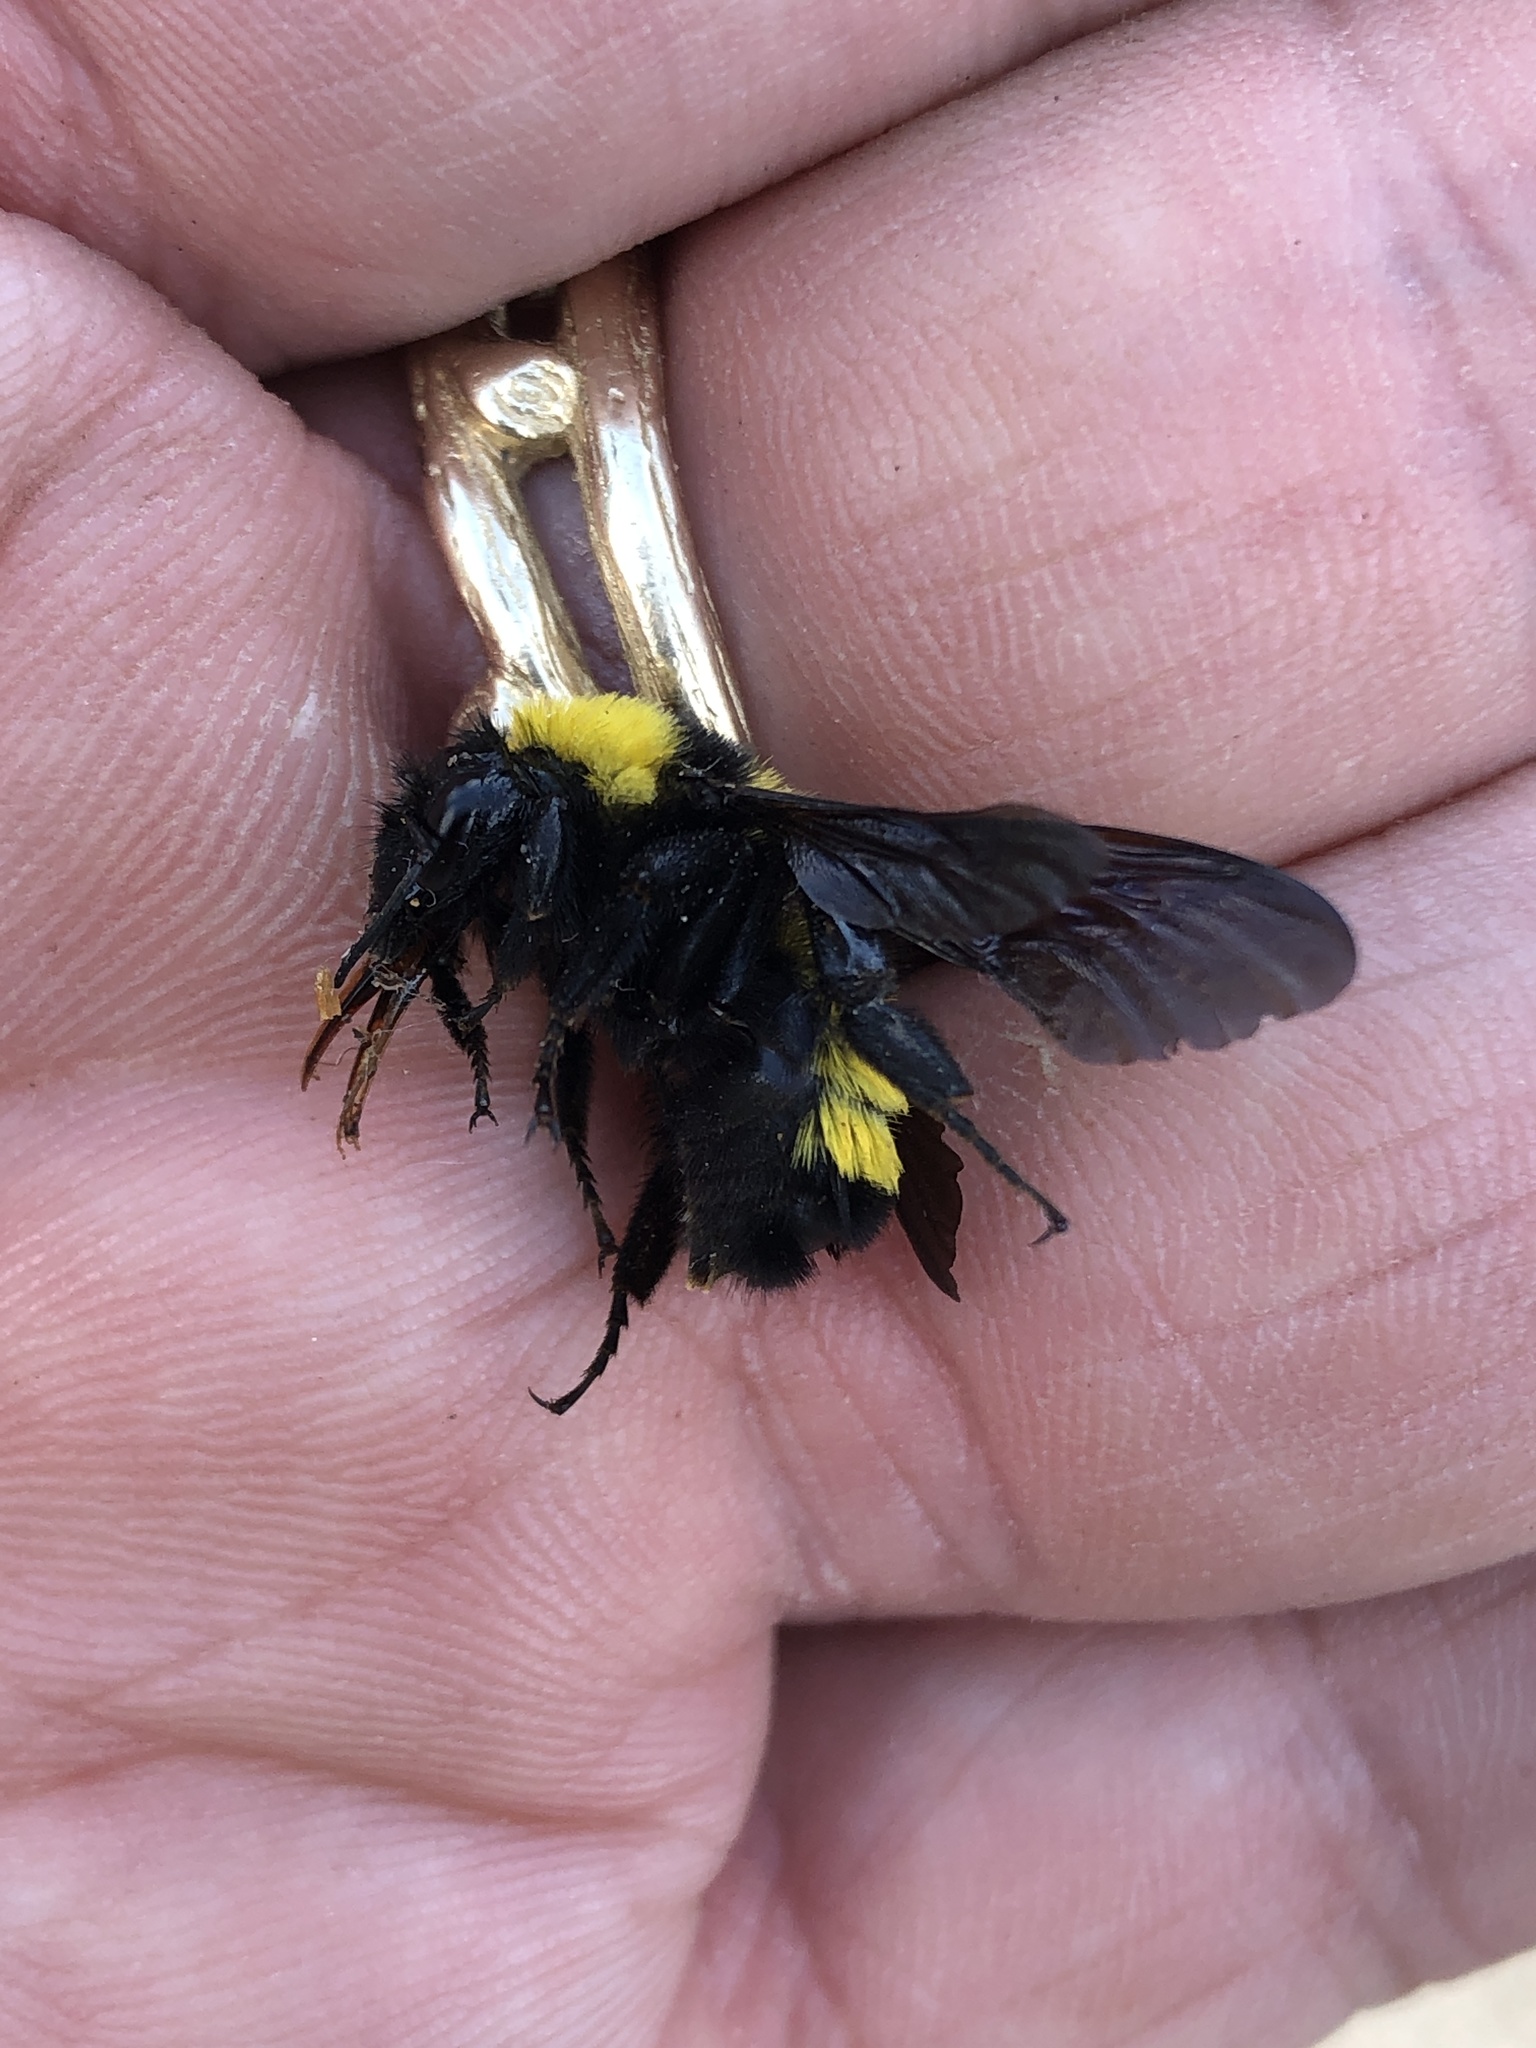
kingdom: Animalia
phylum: Arthropoda
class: Insecta
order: Hymenoptera
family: Apidae
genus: Bombus
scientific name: Bombus sonorus
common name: Sonoran bumble bee
